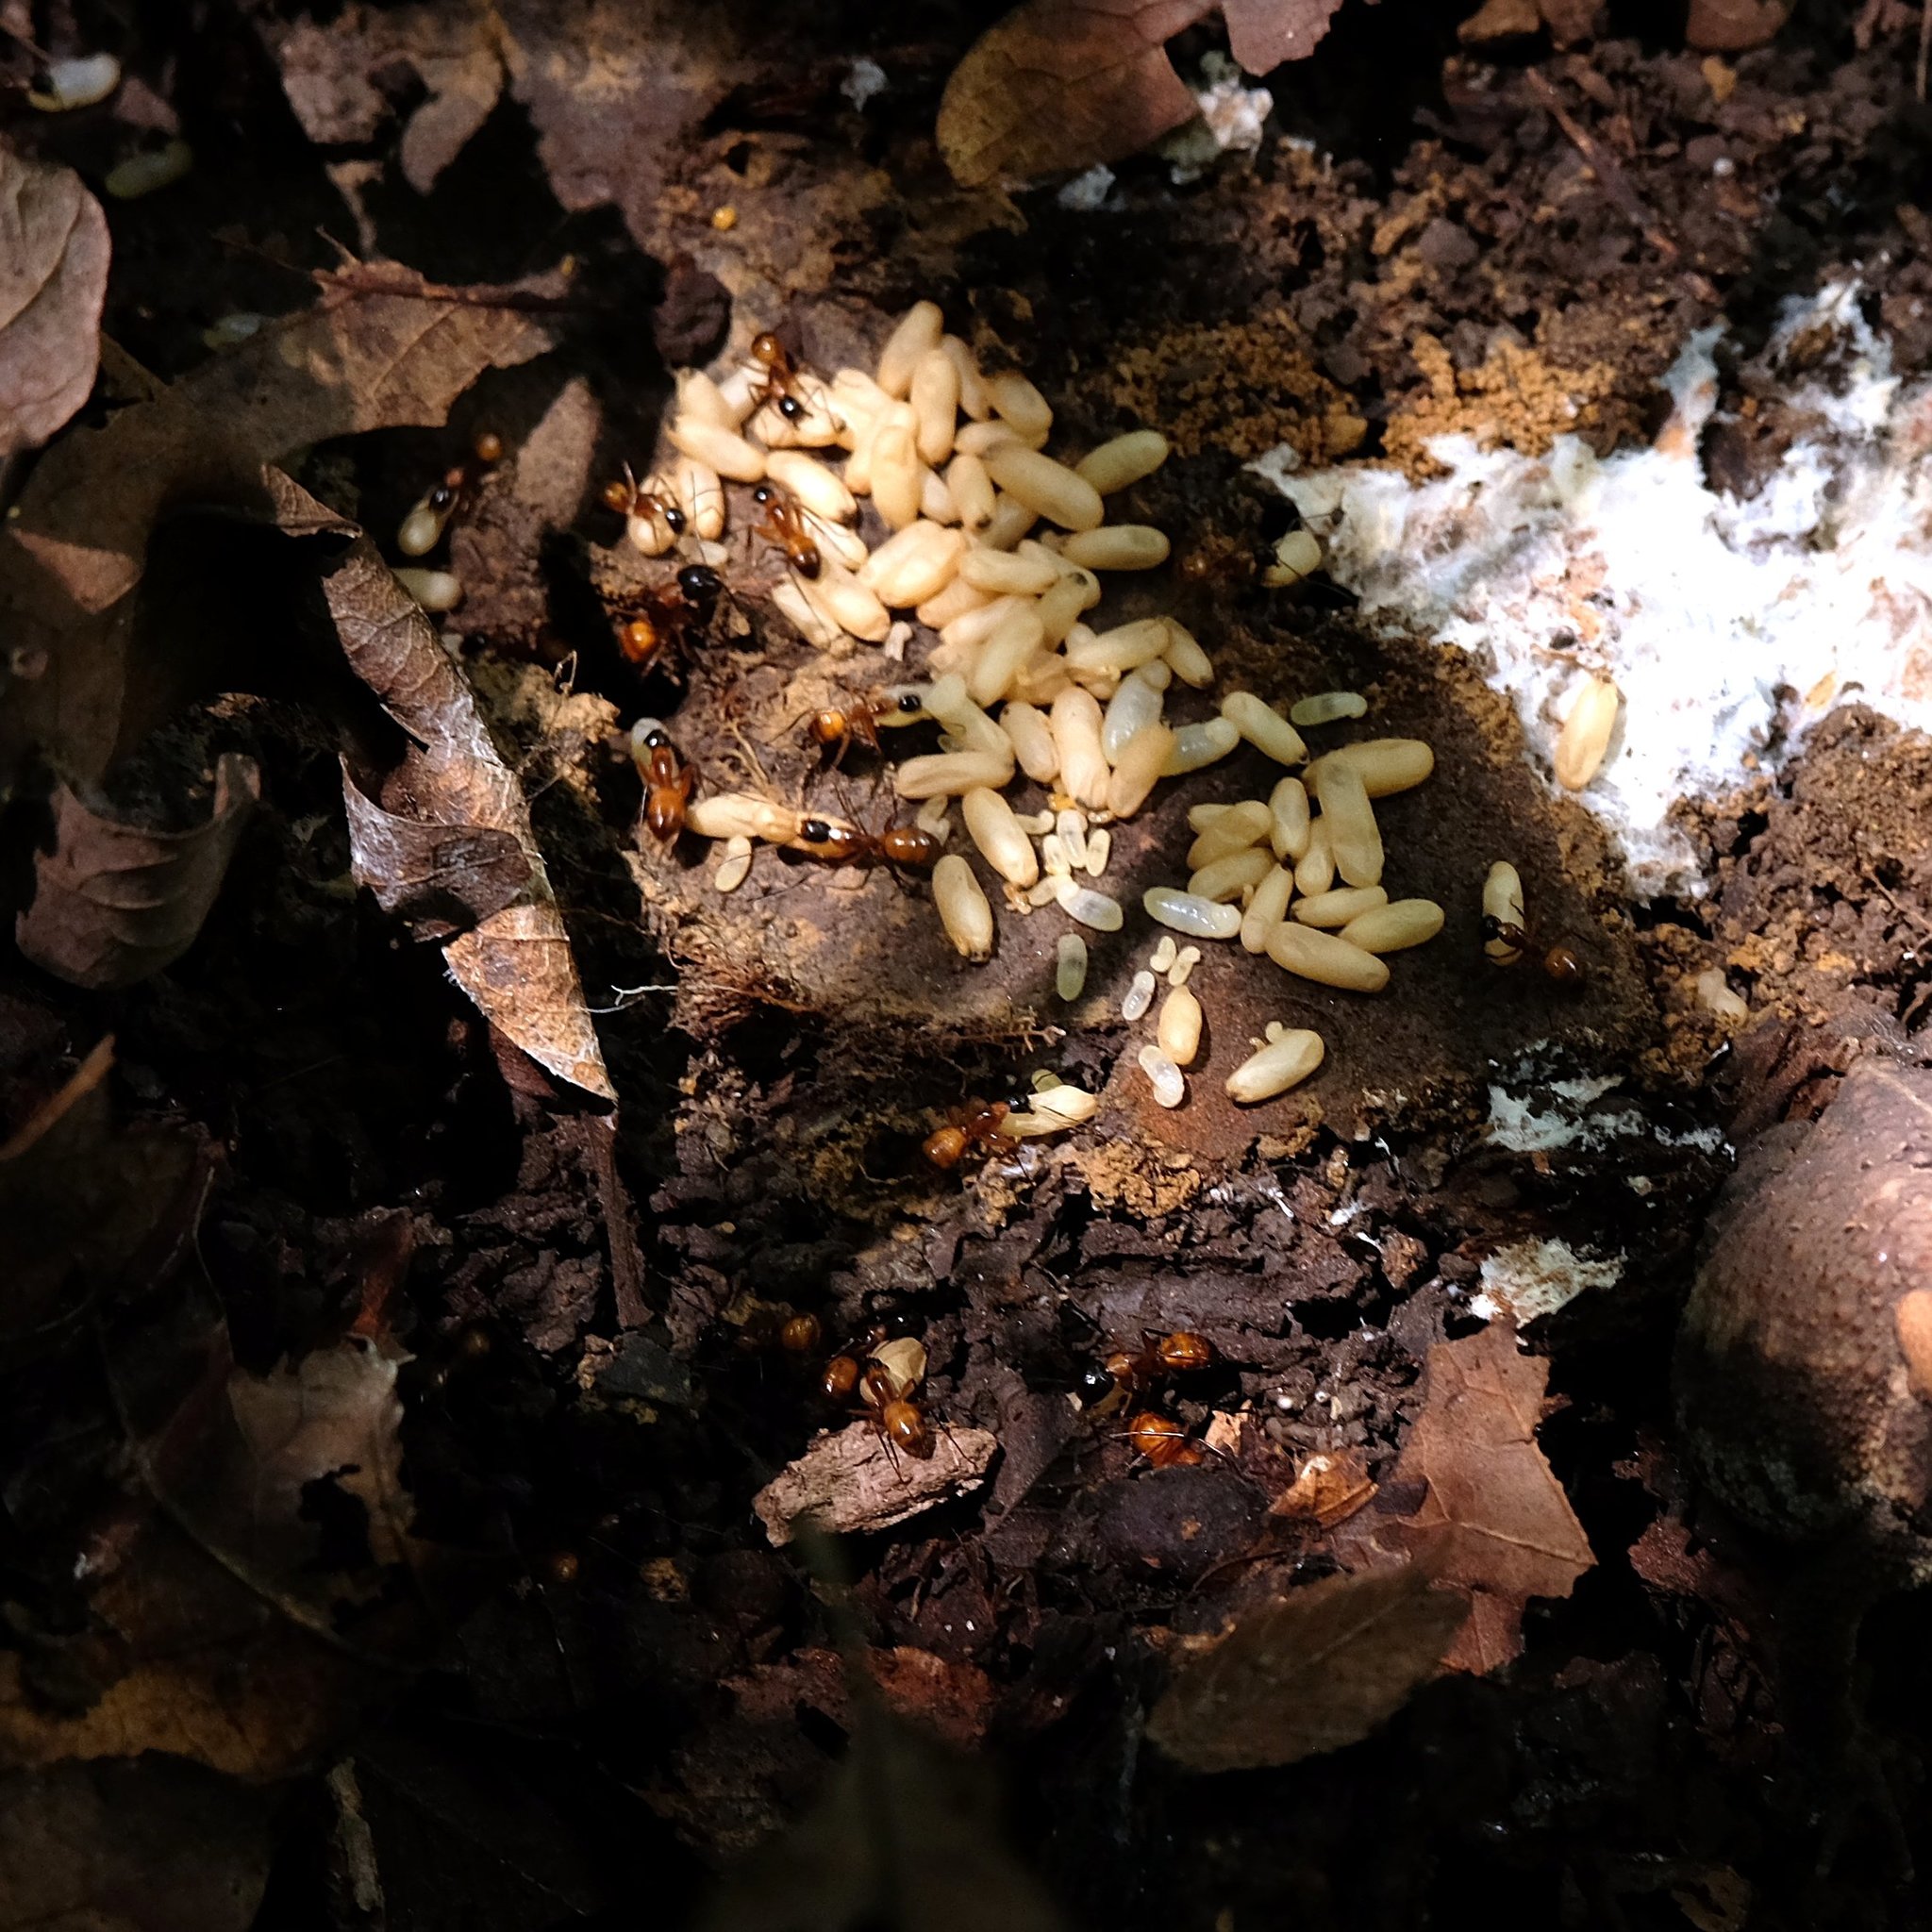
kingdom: Animalia
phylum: Arthropoda
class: Insecta
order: Hymenoptera
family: Formicidae
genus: Camponotus
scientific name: Camponotus americanus
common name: American carpenter ant
